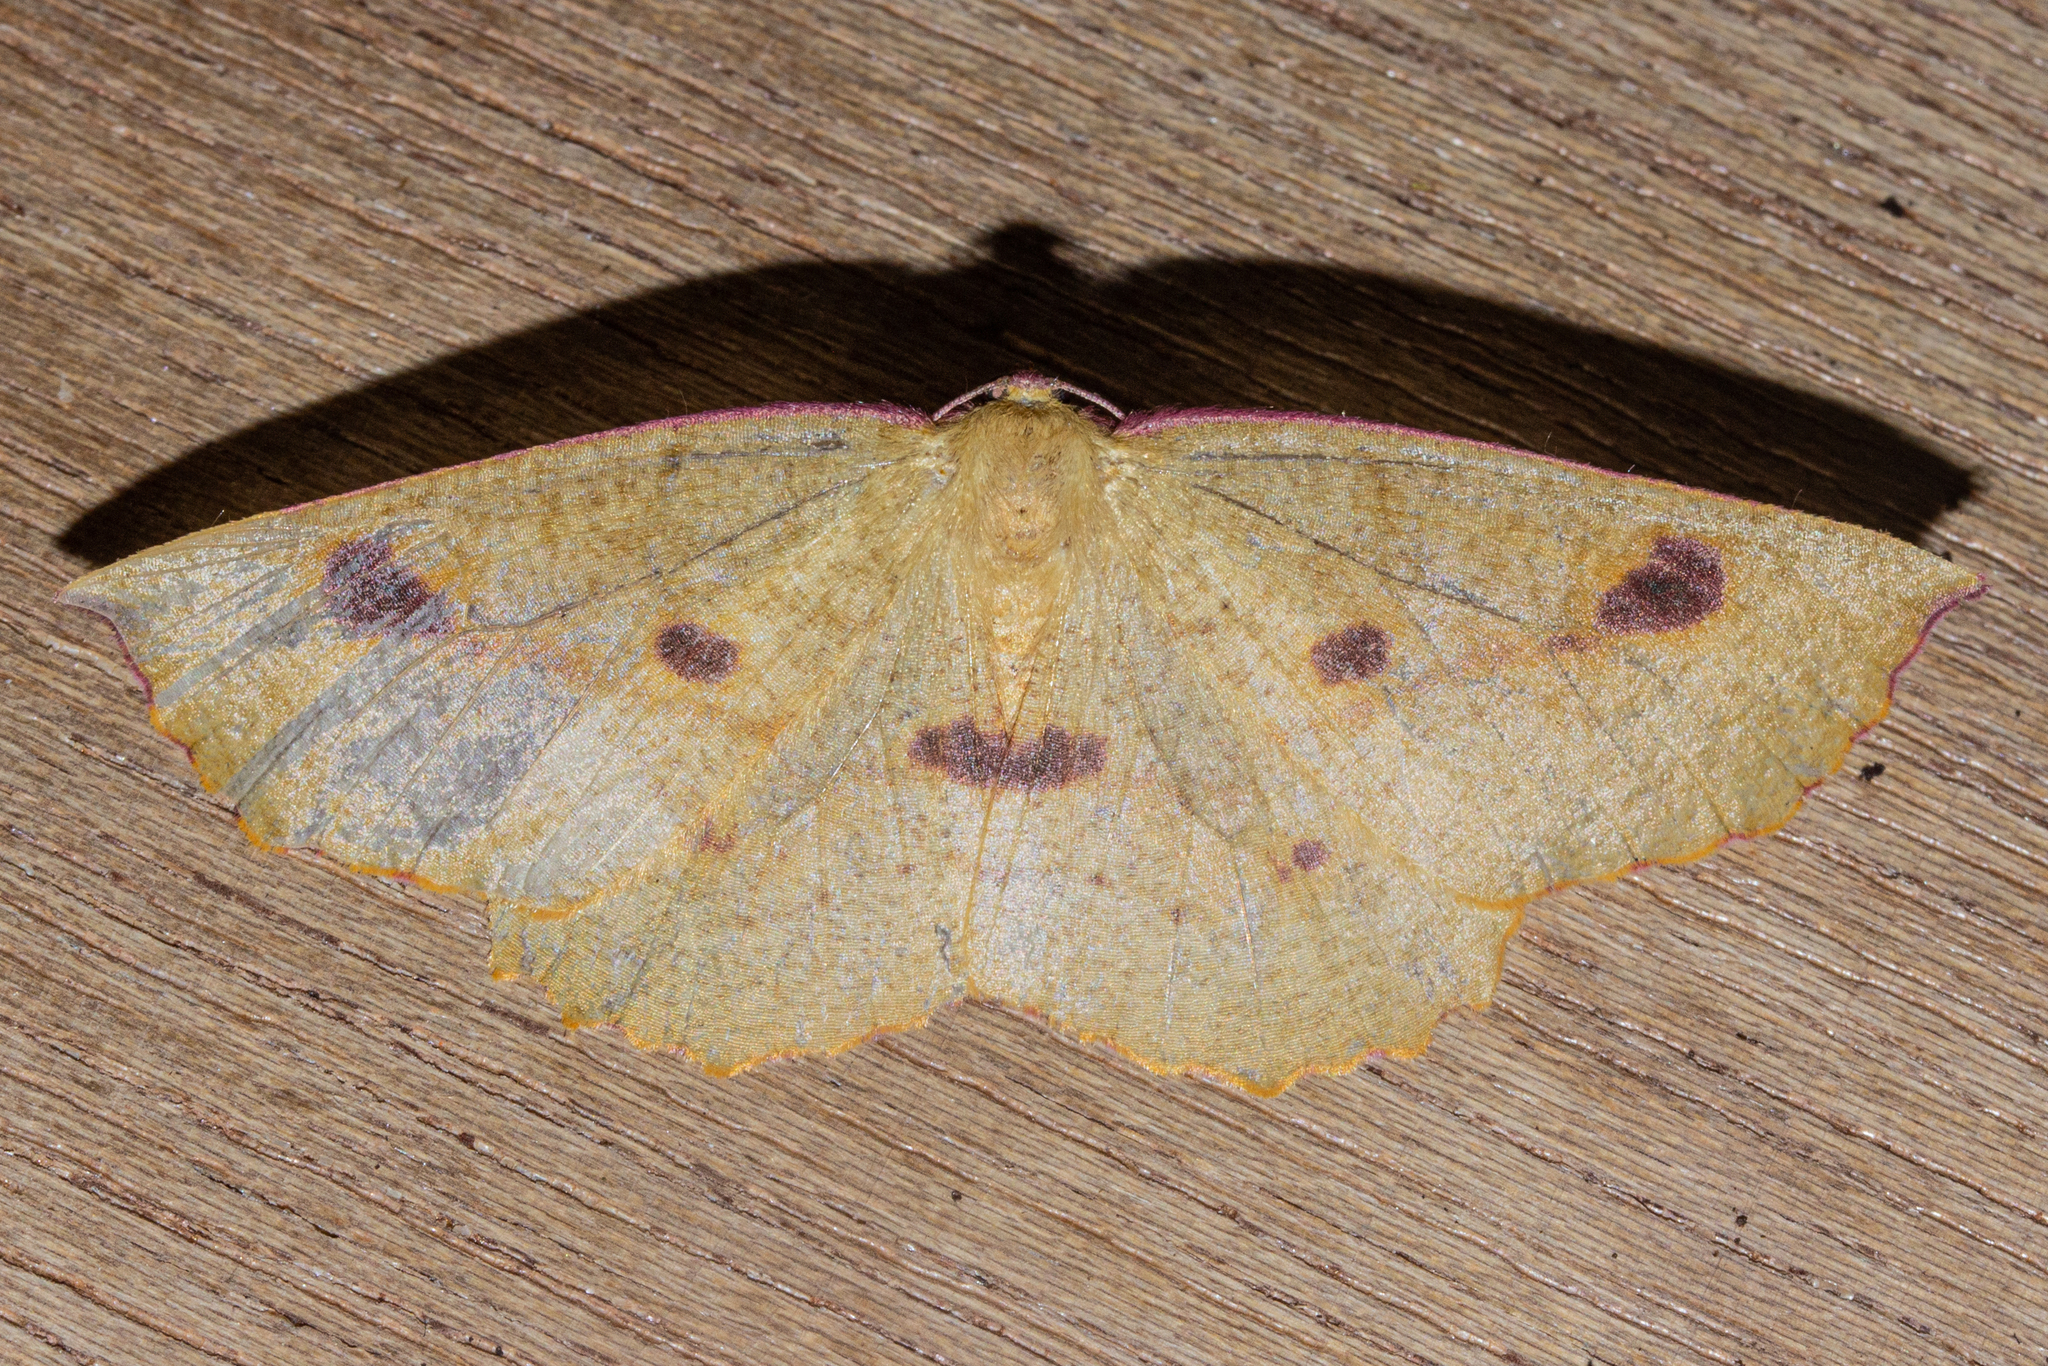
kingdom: Animalia
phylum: Arthropoda
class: Insecta
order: Lepidoptera
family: Geometridae
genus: Xyridacma
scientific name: Xyridacma alectoraria
